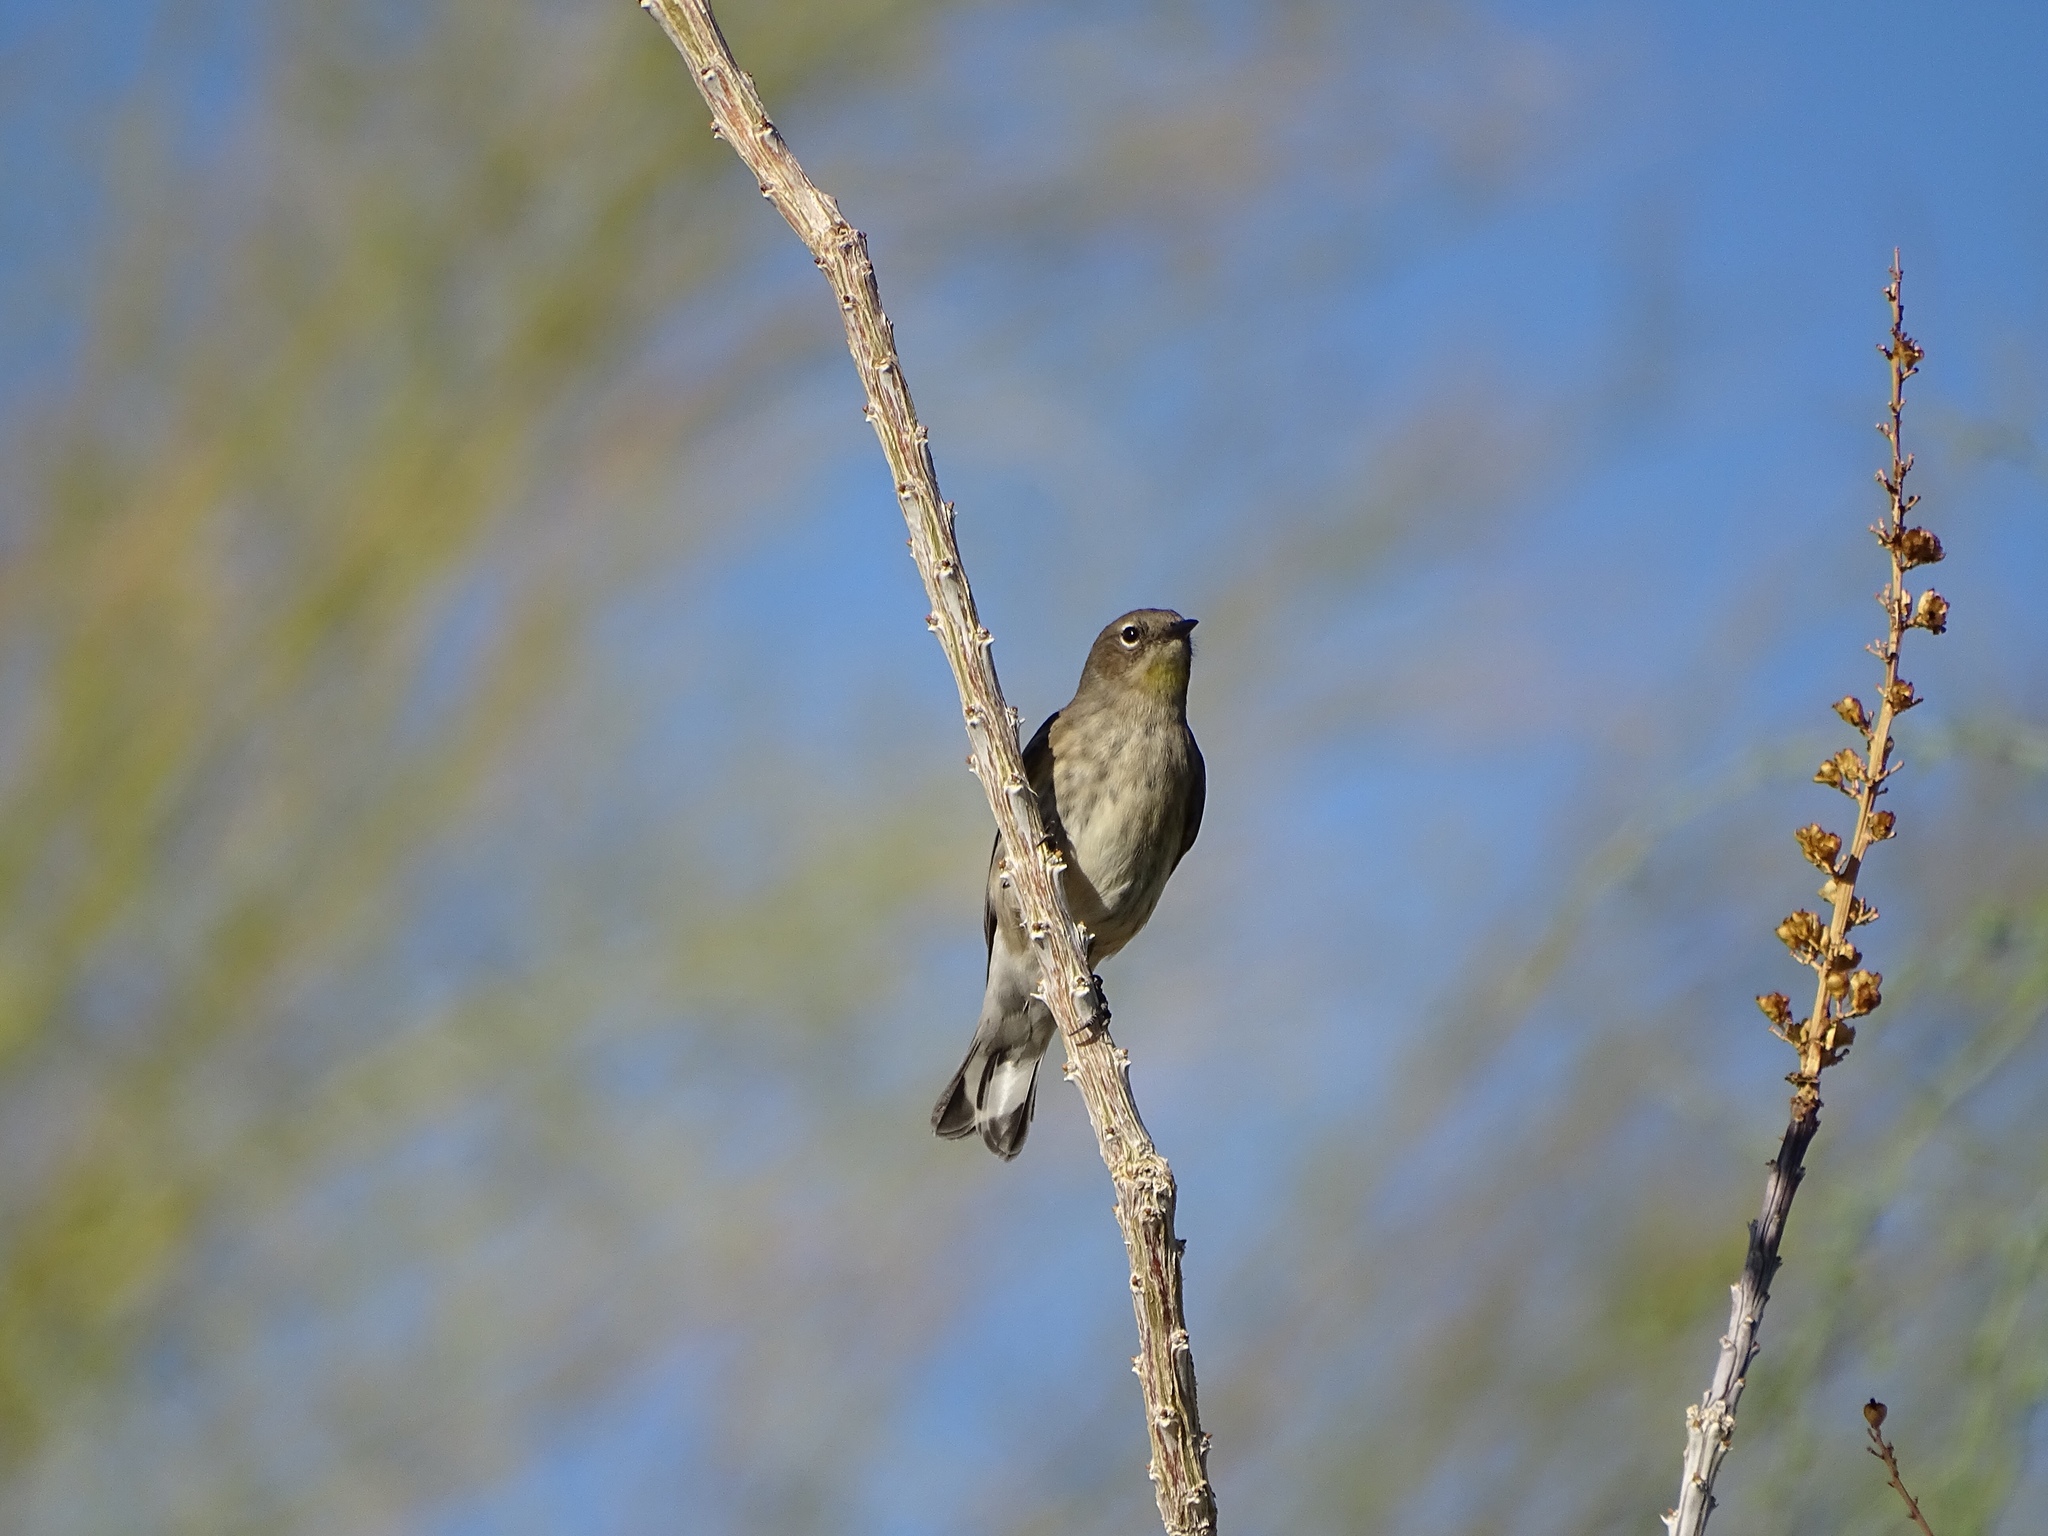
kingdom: Animalia
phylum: Chordata
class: Aves
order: Passeriformes
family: Parulidae
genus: Setophaga
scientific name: Setophaga coronata
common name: Myrtle warbler
